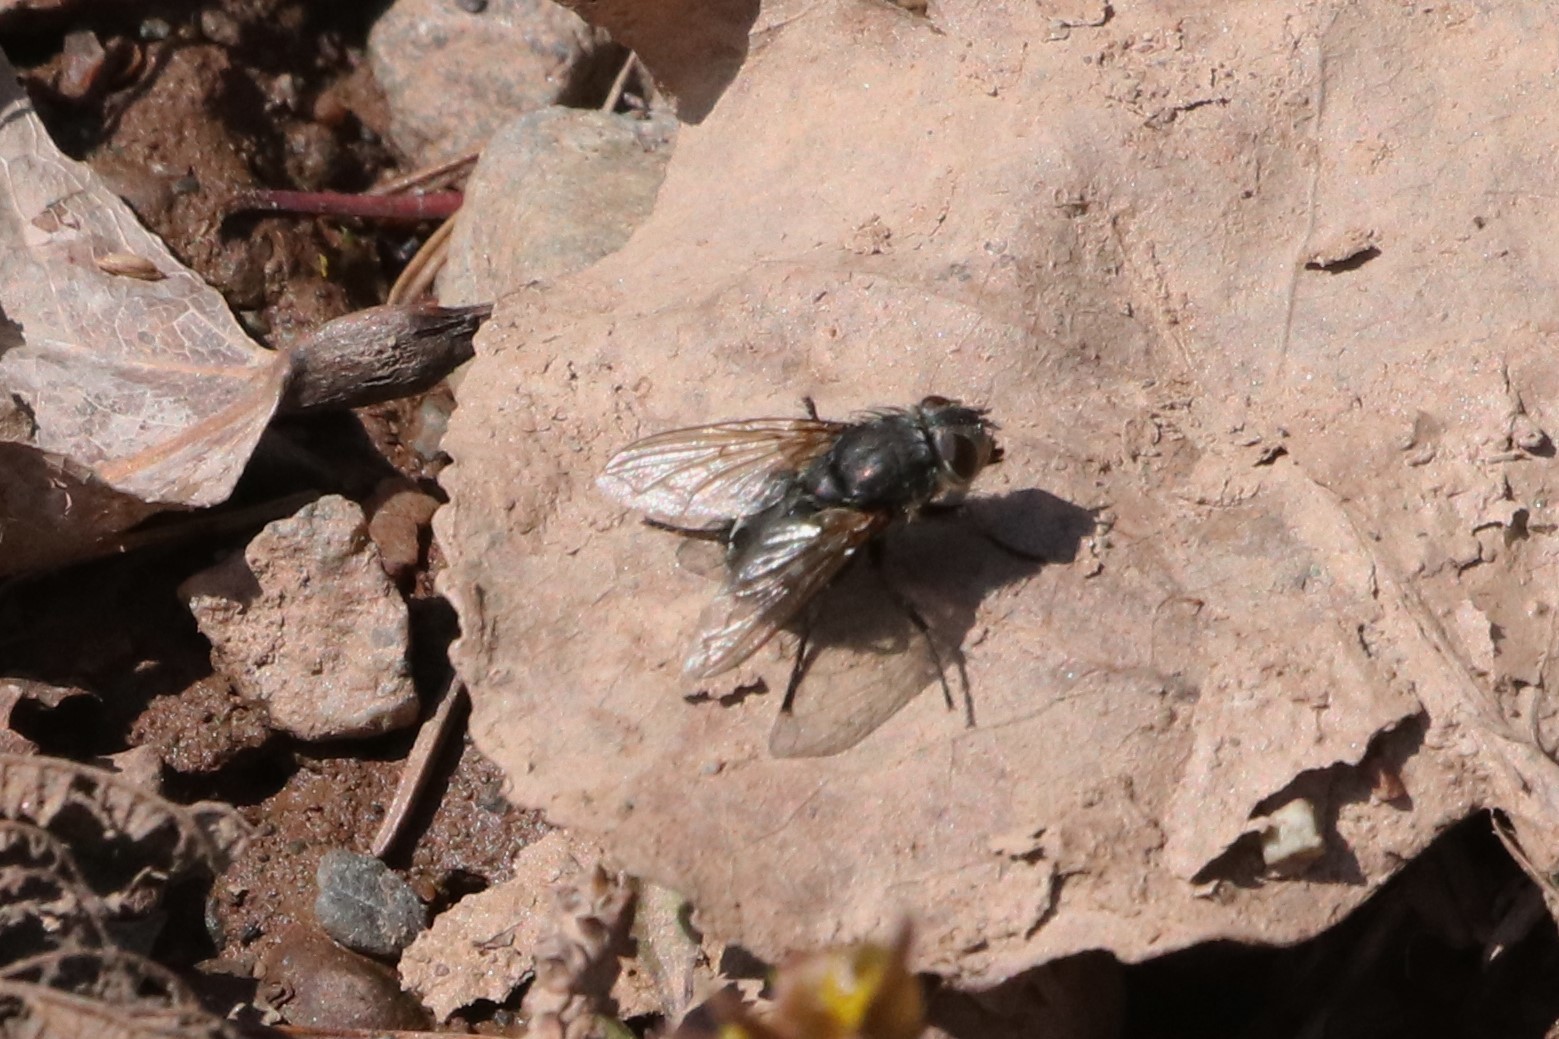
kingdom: Animalia
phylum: Arthropoda
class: Insecta
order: Diptera
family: Polleniidae
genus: Pollenia
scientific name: Pollenia
